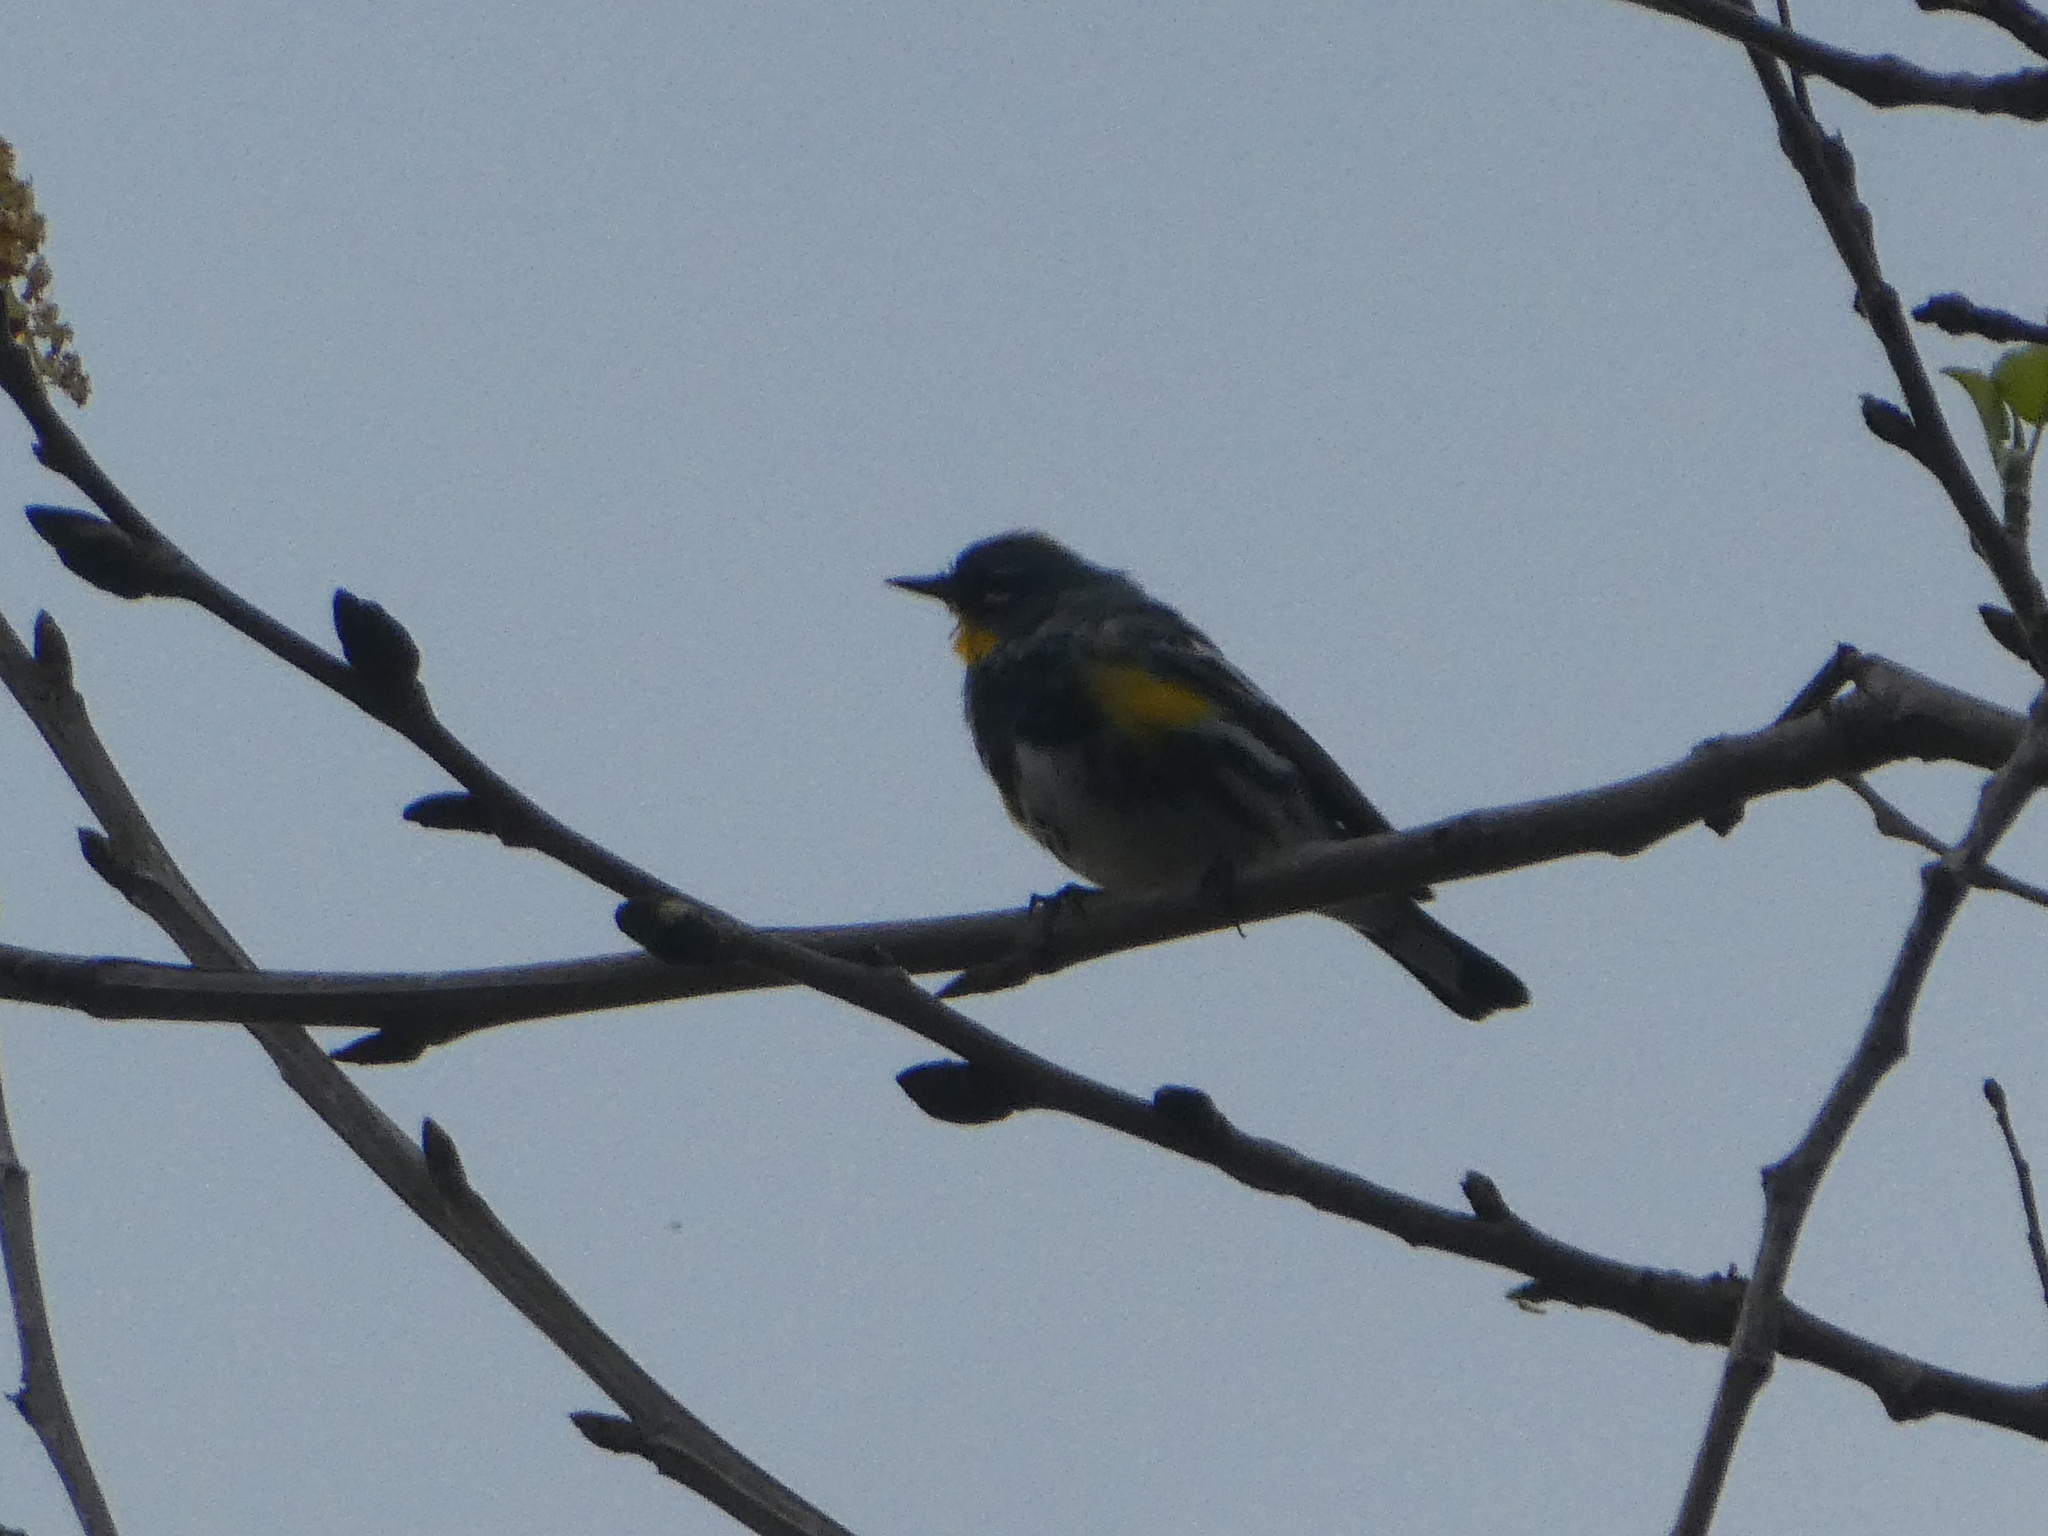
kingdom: Animalia
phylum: Chordata
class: Aves
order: Passeriformes
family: Parulidae
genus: Setophaga
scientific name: Setophaga coronata
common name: Myrtle warbler
